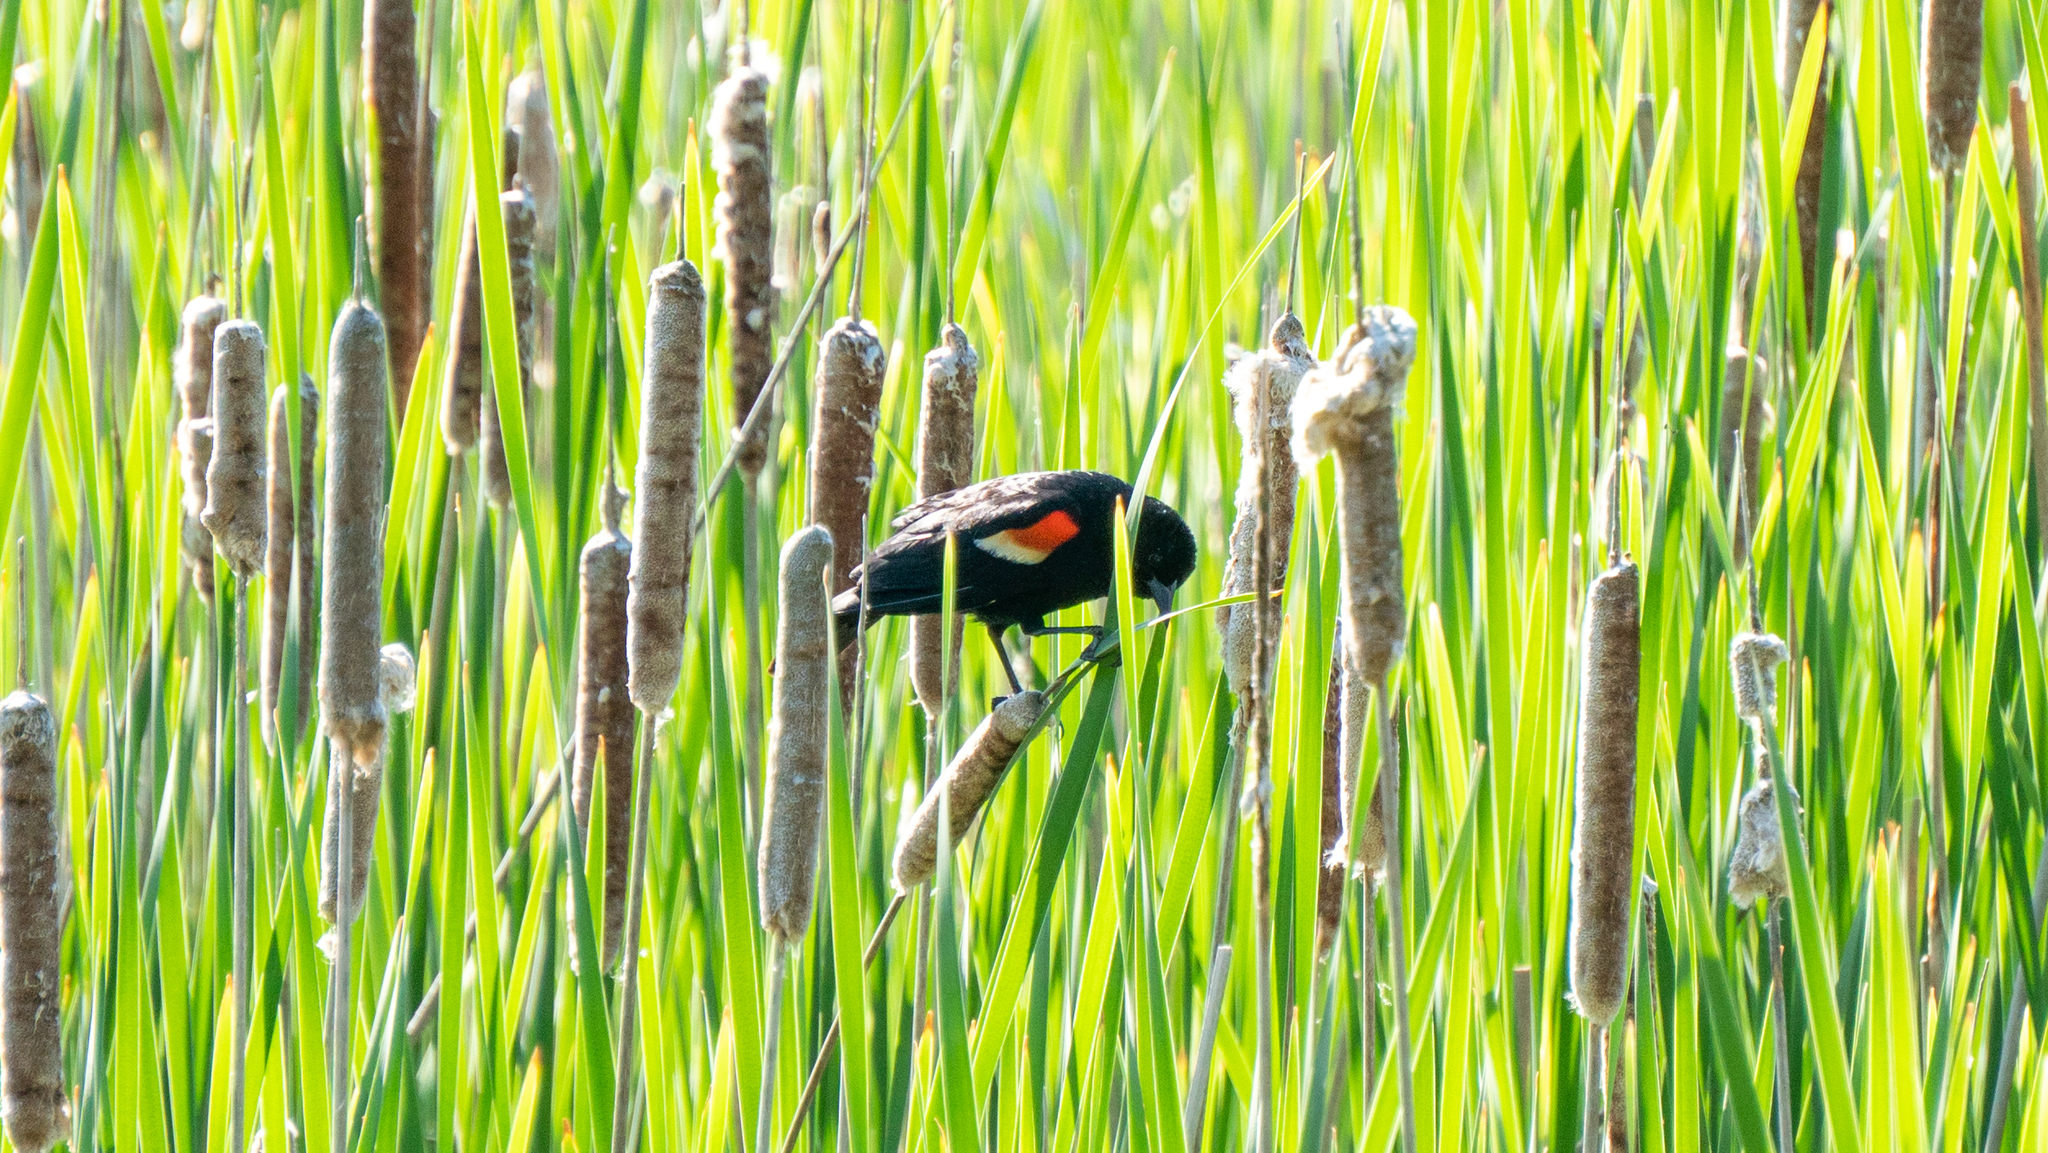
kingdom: Animalia
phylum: Chordata
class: Aves
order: Passeriformes
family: Icteridae
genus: Agelaius
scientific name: Agelaius phoeniceus
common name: Red-winged blackbird
